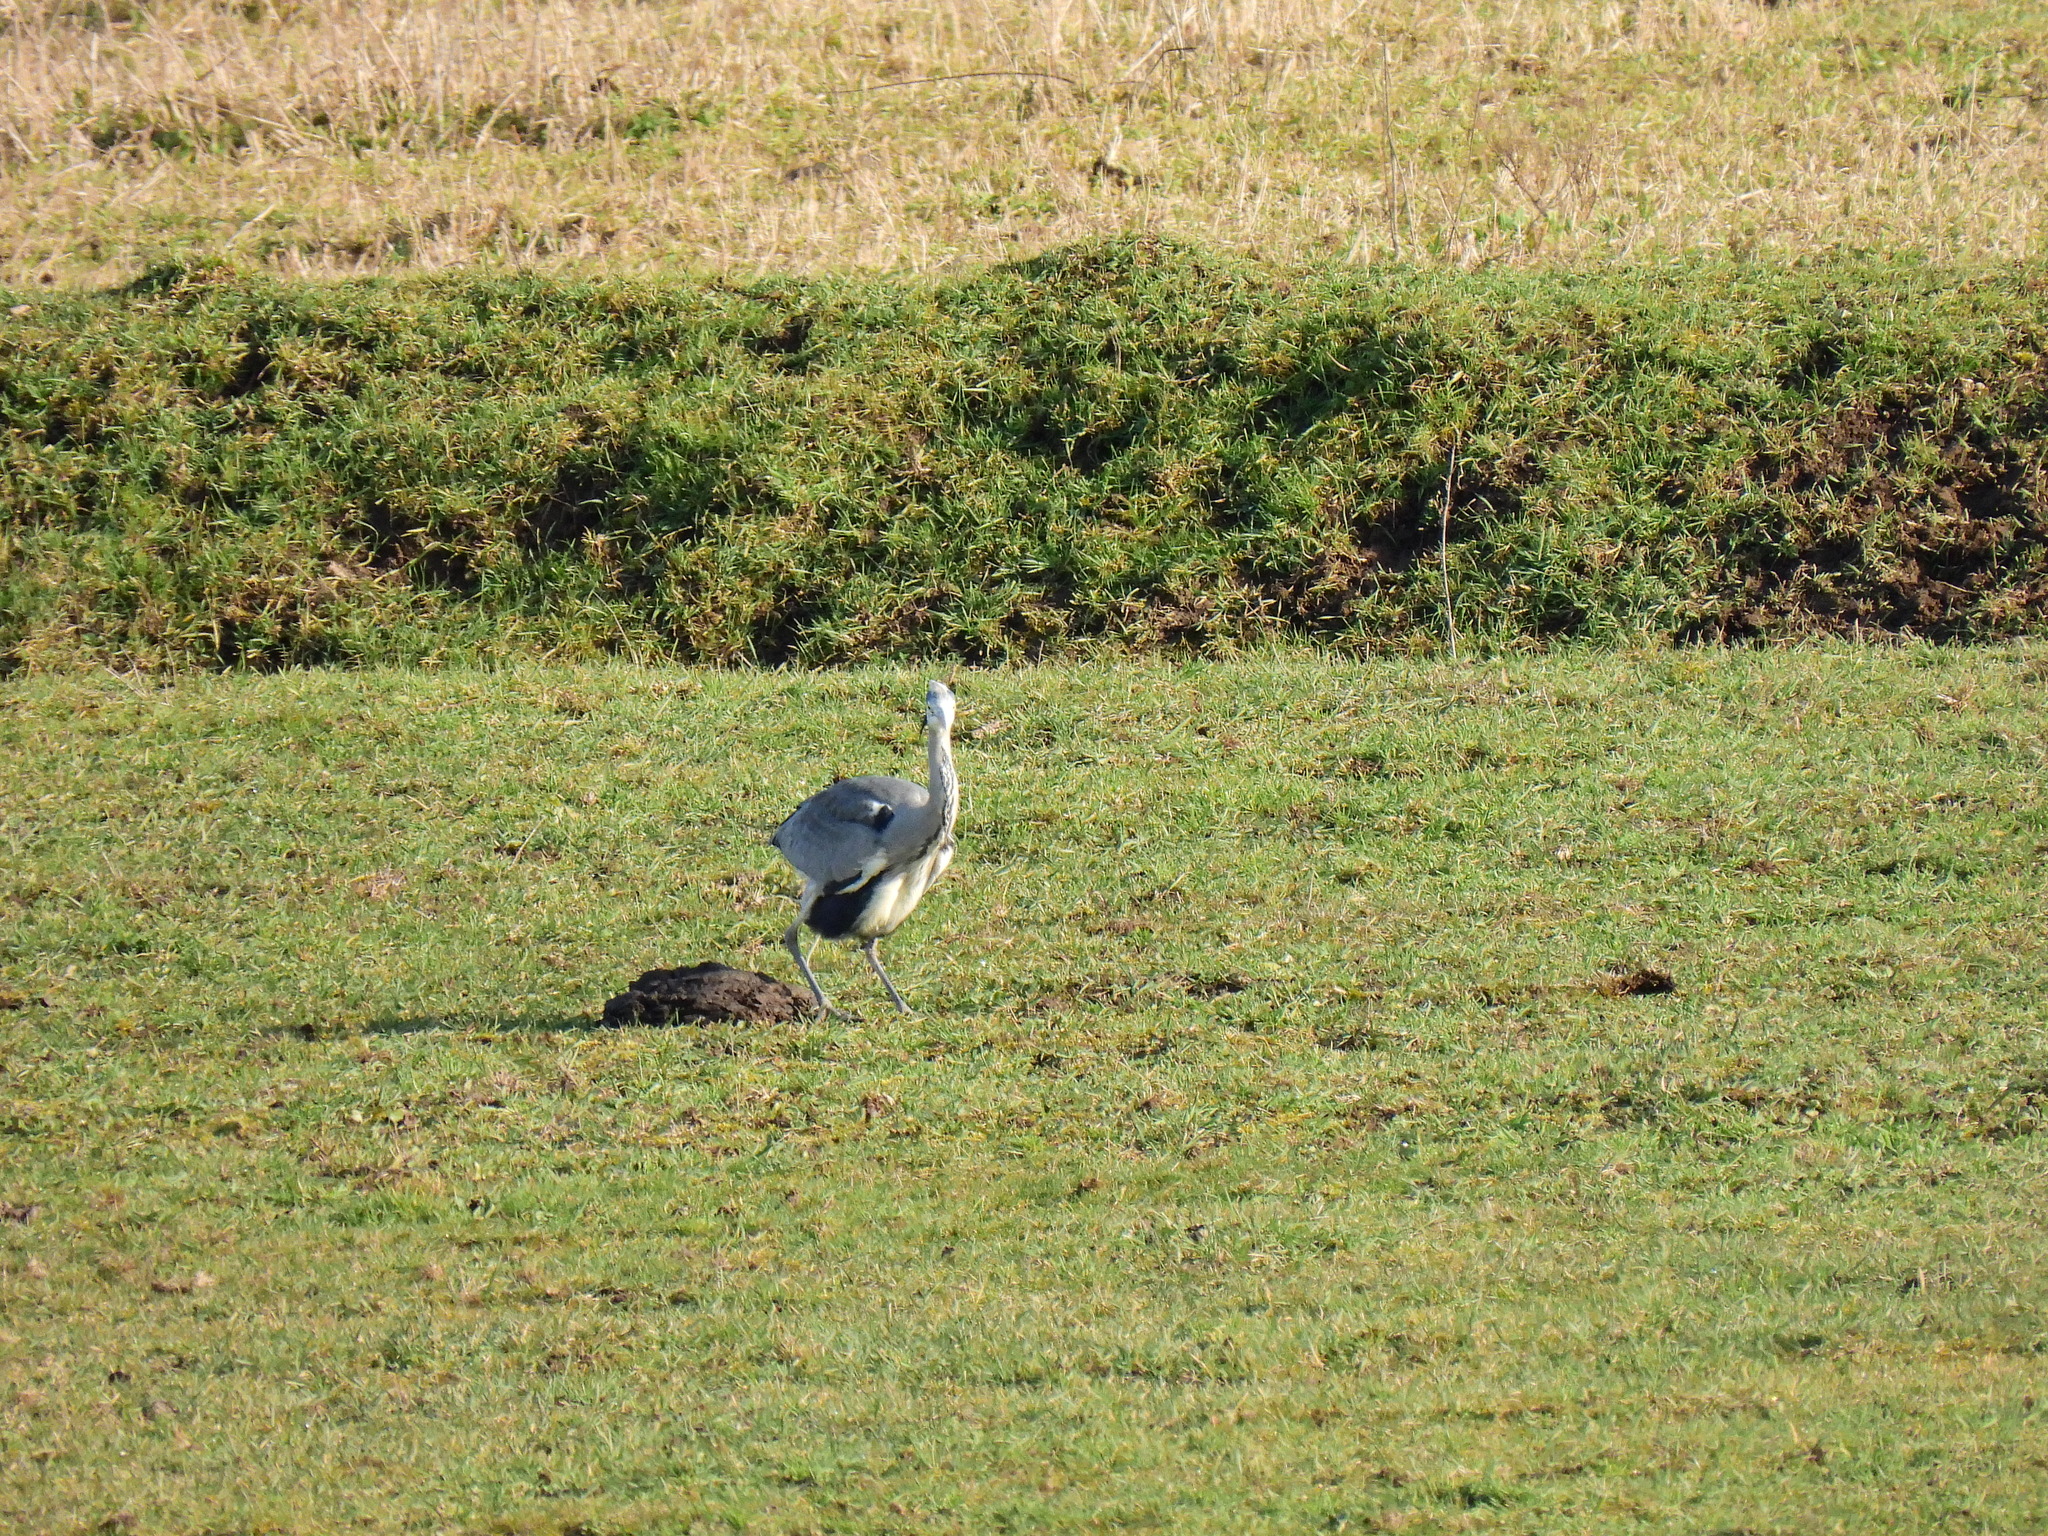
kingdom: Animalia
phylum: Chordata
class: Aves
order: Pelecaniformes
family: Ardeidae
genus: Ardea
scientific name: Ardea cinerea
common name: Grey heron
